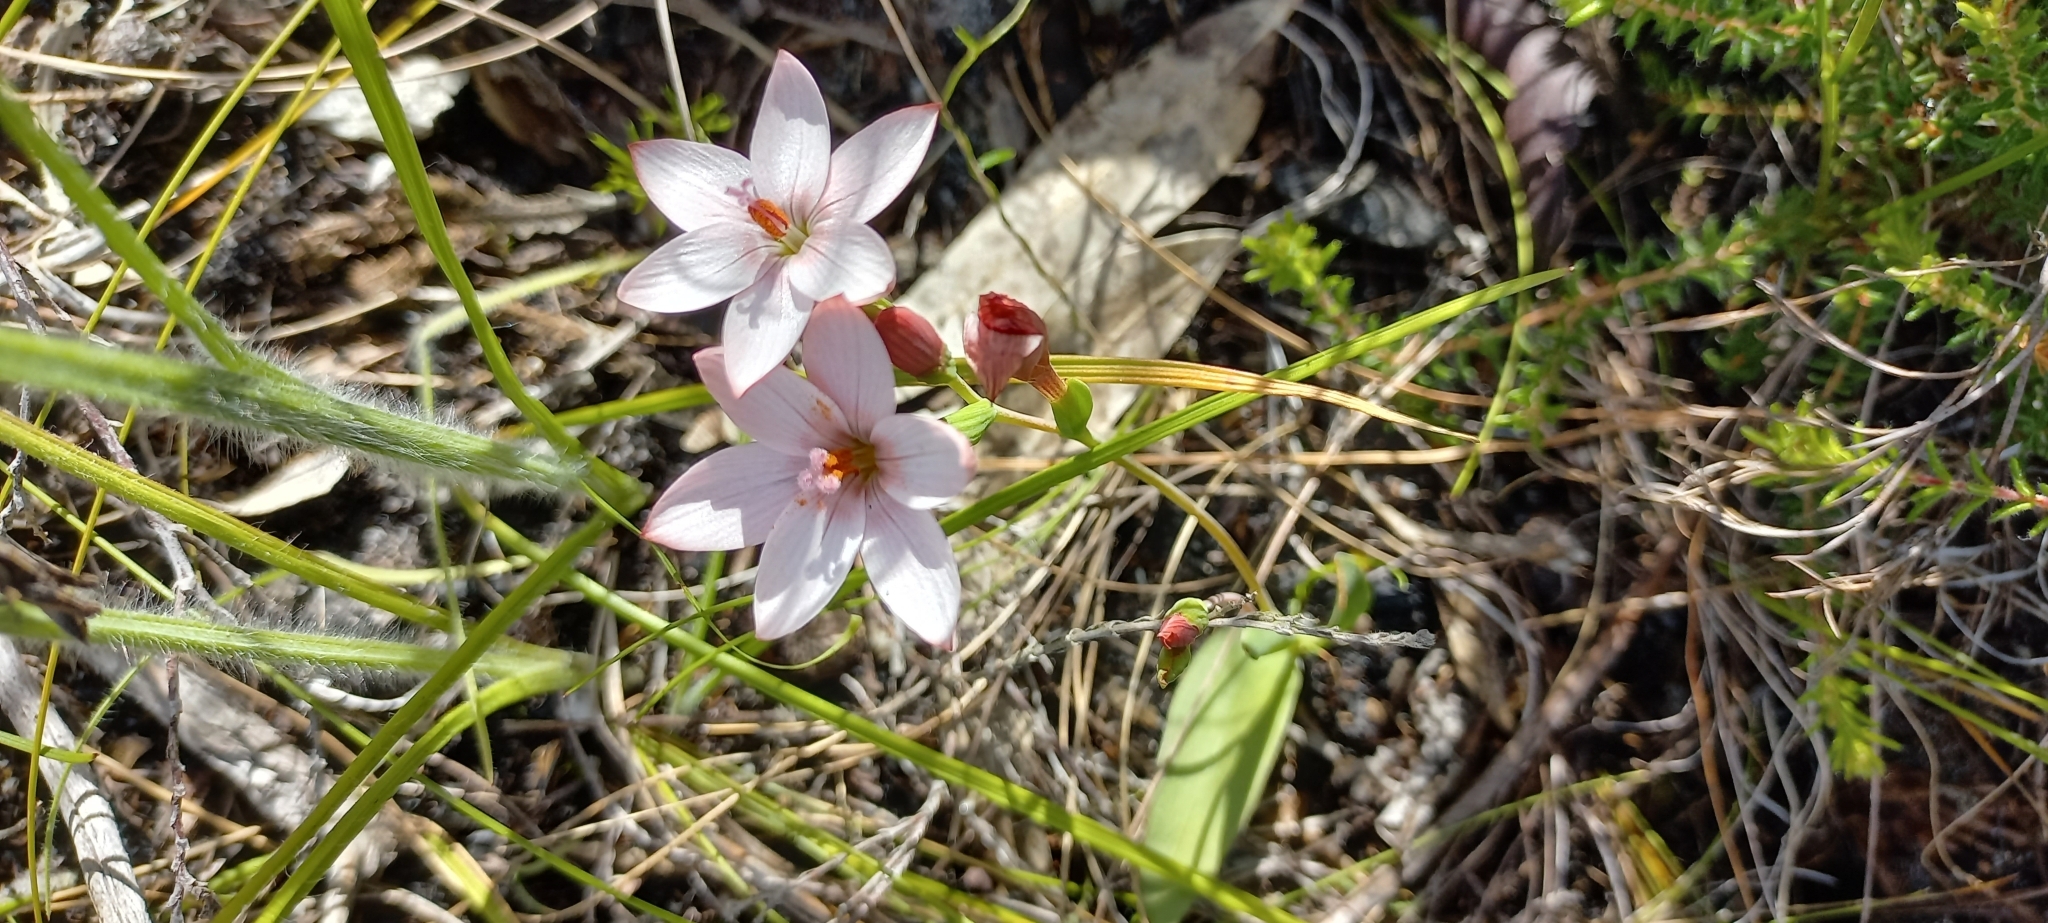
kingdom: Plantae
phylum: Tracheophyta
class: Liliopsida
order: Asparagales
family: Iridaceae
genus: Geissorhiza
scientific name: Geissorhiza ovata
